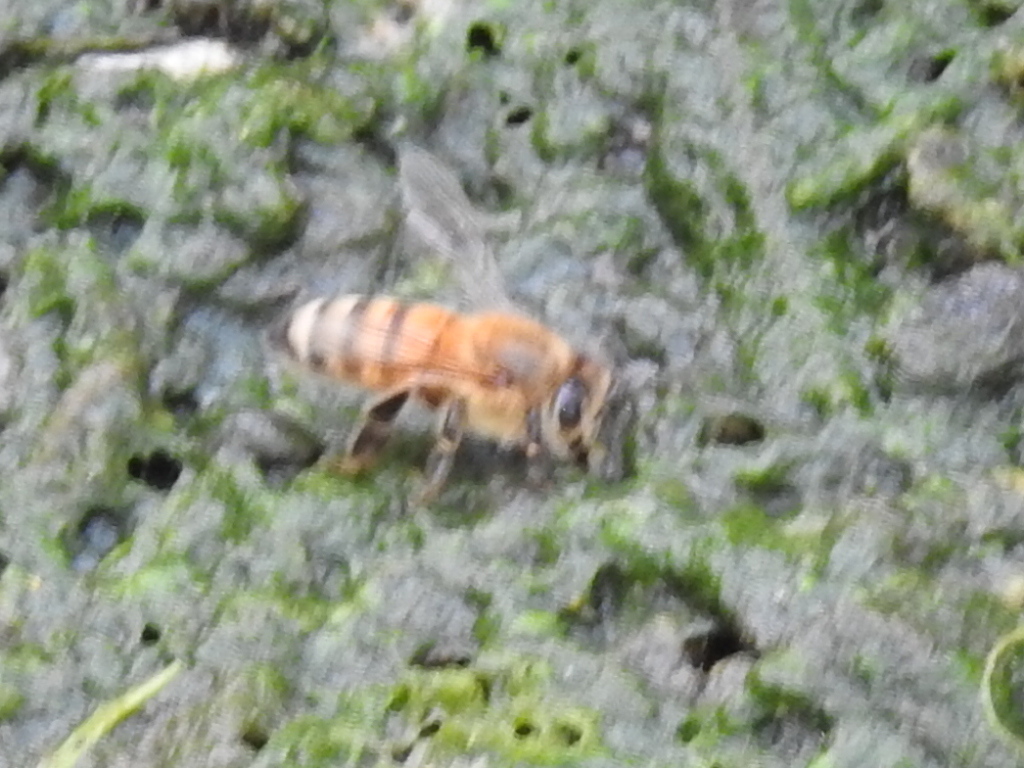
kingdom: Animalia
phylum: Arthropoda
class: Insecta
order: Hymenoptera
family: Apidae
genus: Apis
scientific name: Apis mellifera
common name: Honey bee
